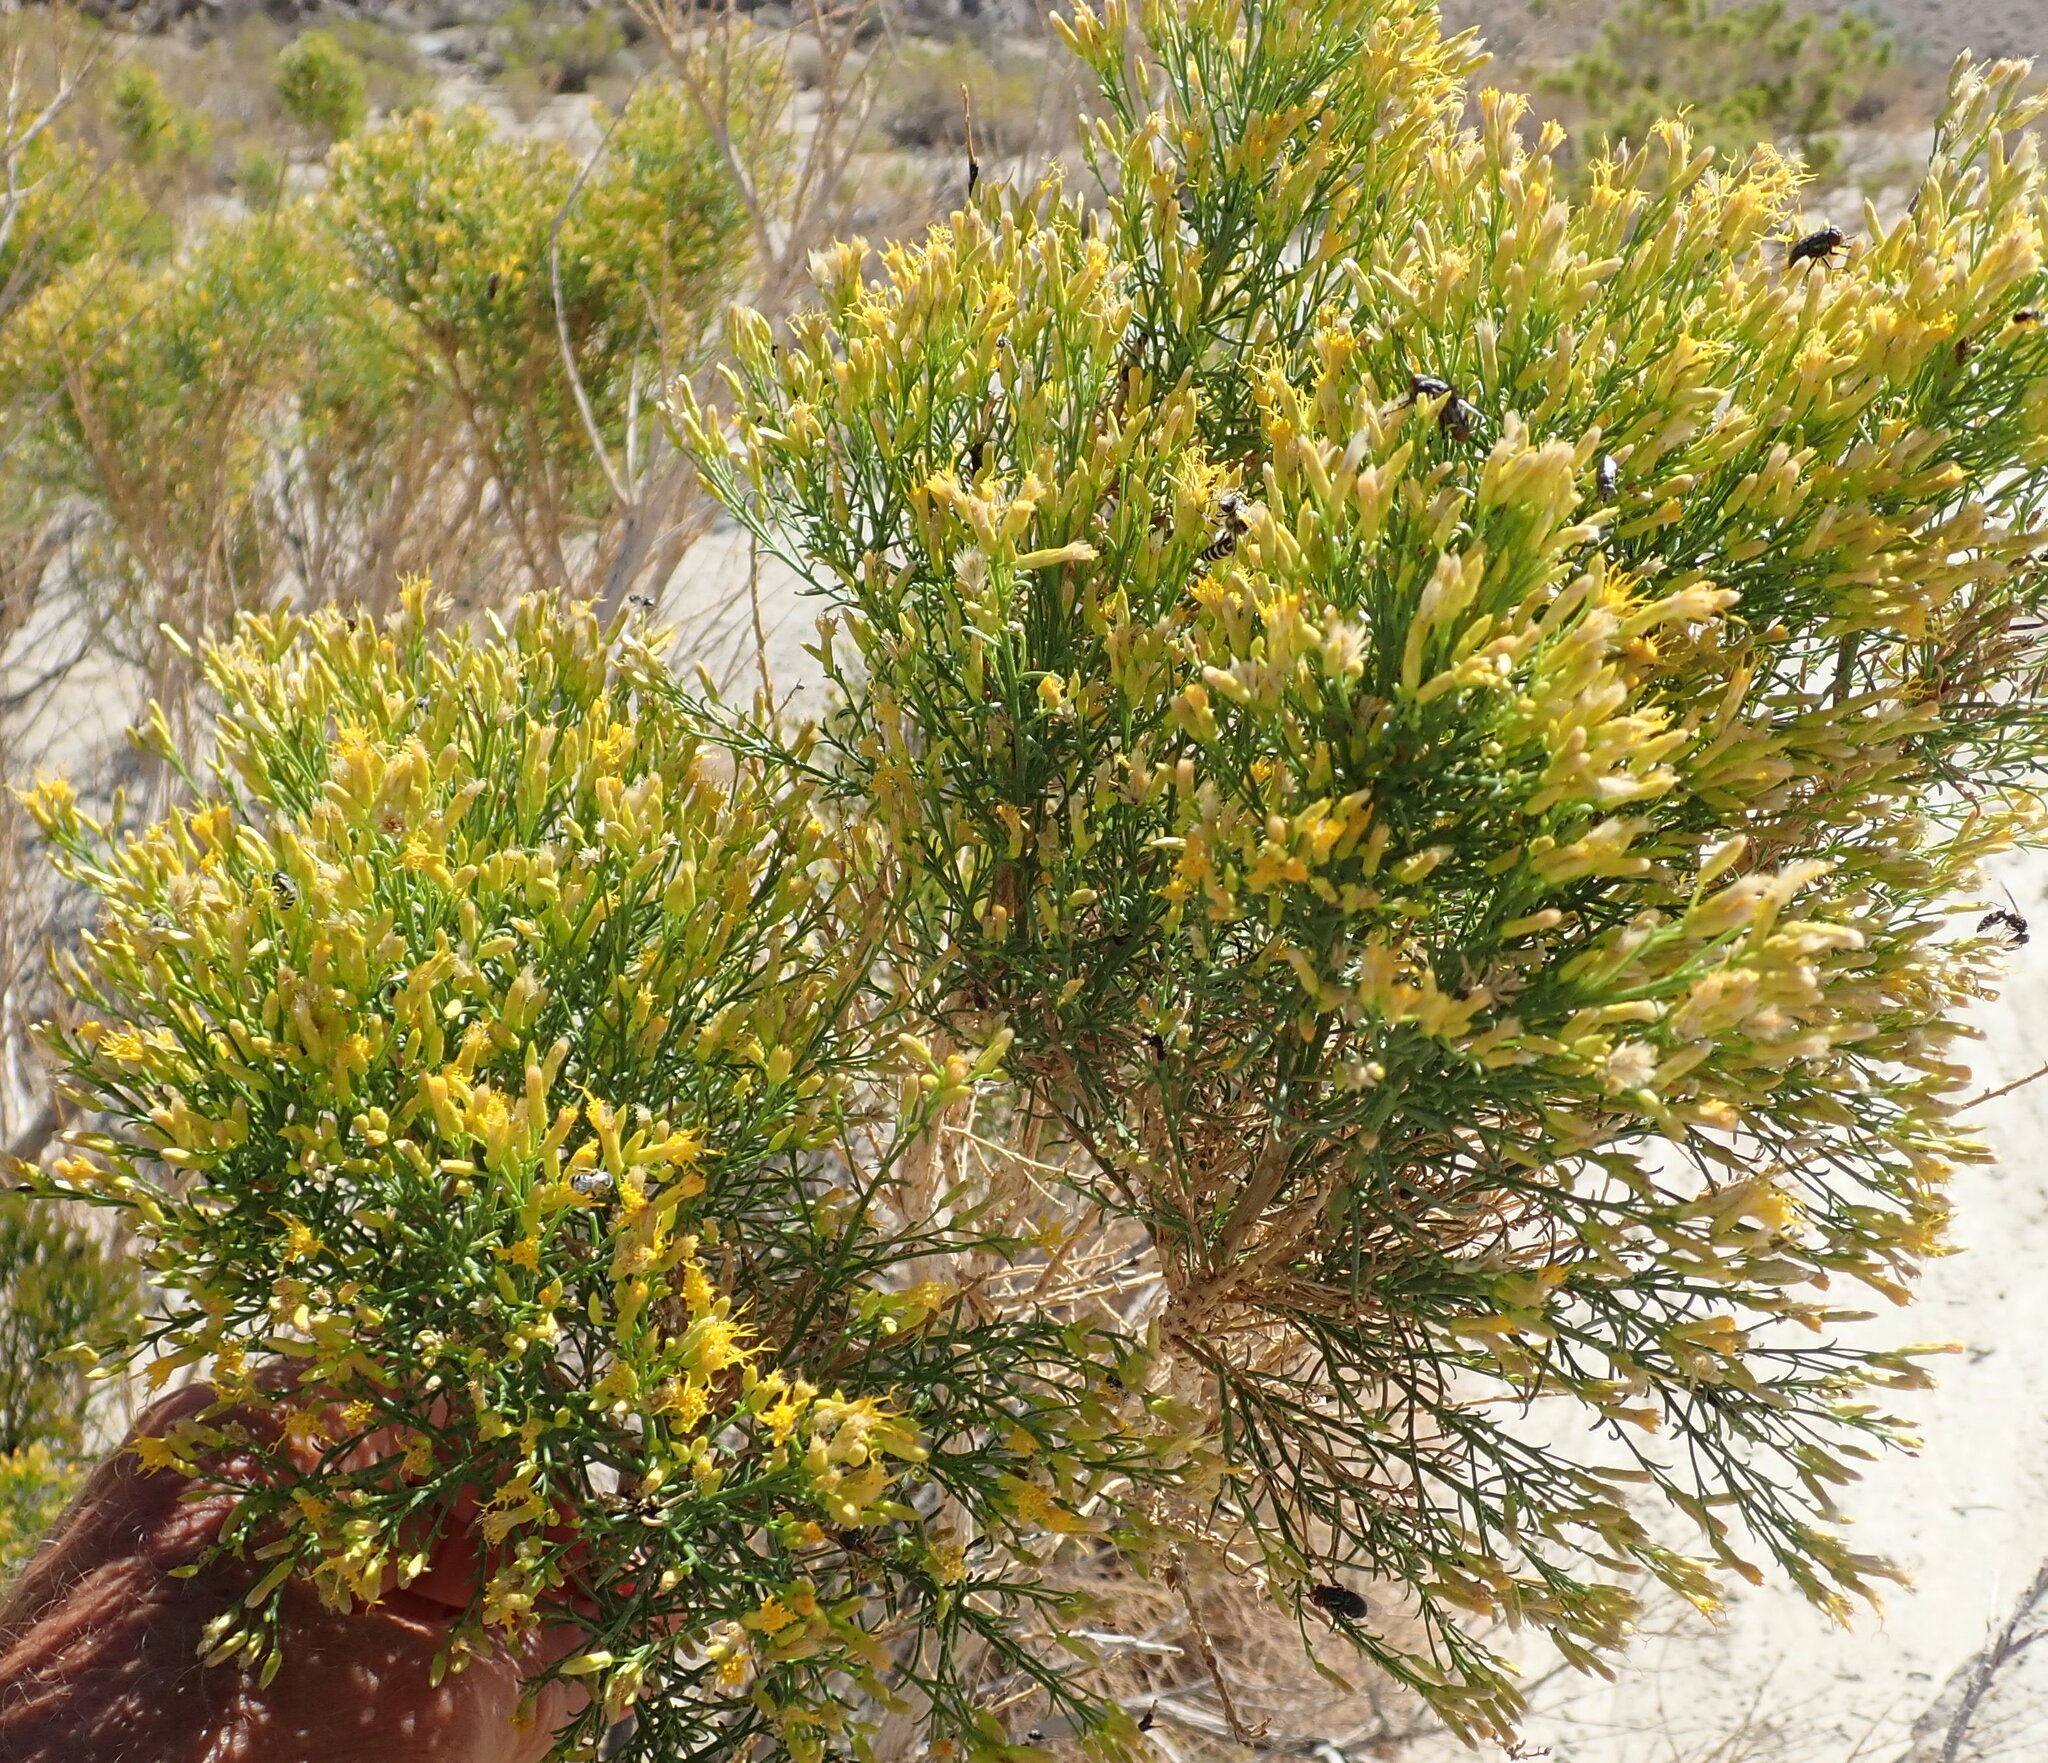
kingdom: Plantae
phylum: Tracheophyta
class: Magnoliopsida
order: Asterales
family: Asteraceae
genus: Ericameria
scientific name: Ericameria paniculata
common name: Punctate rabbitbrush
